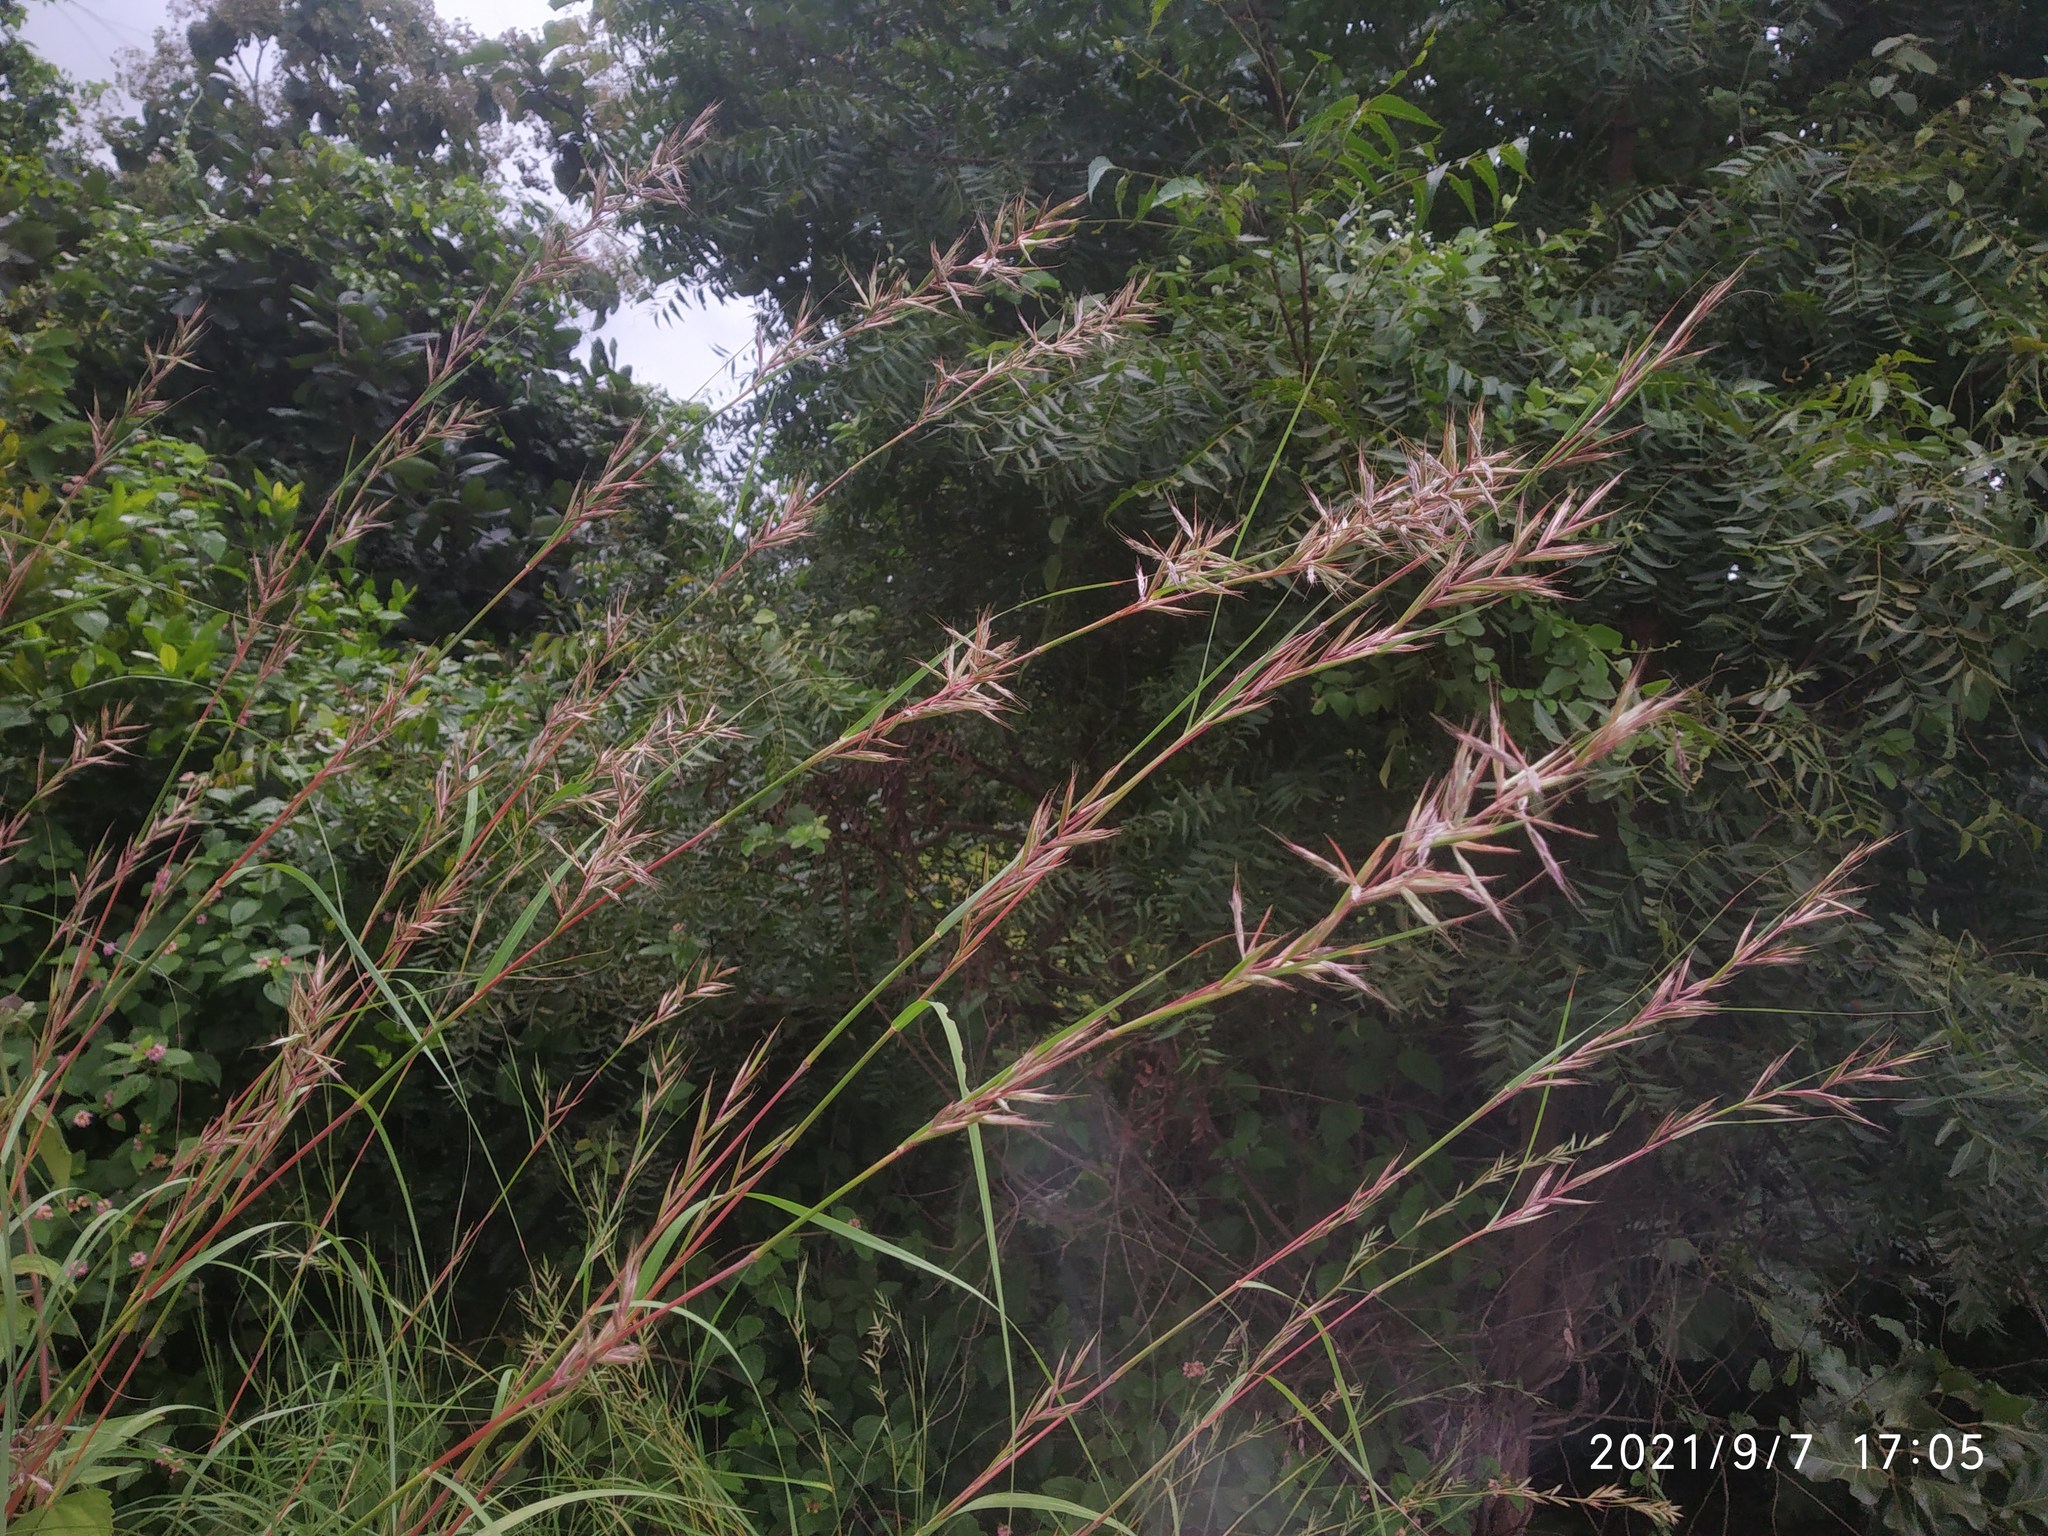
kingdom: Plantae
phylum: Tracheophyta
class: Liliopsida
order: Poales
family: Poaceae
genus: Cymbopogon
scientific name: Cymbopogon caesius
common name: Kachi grass
